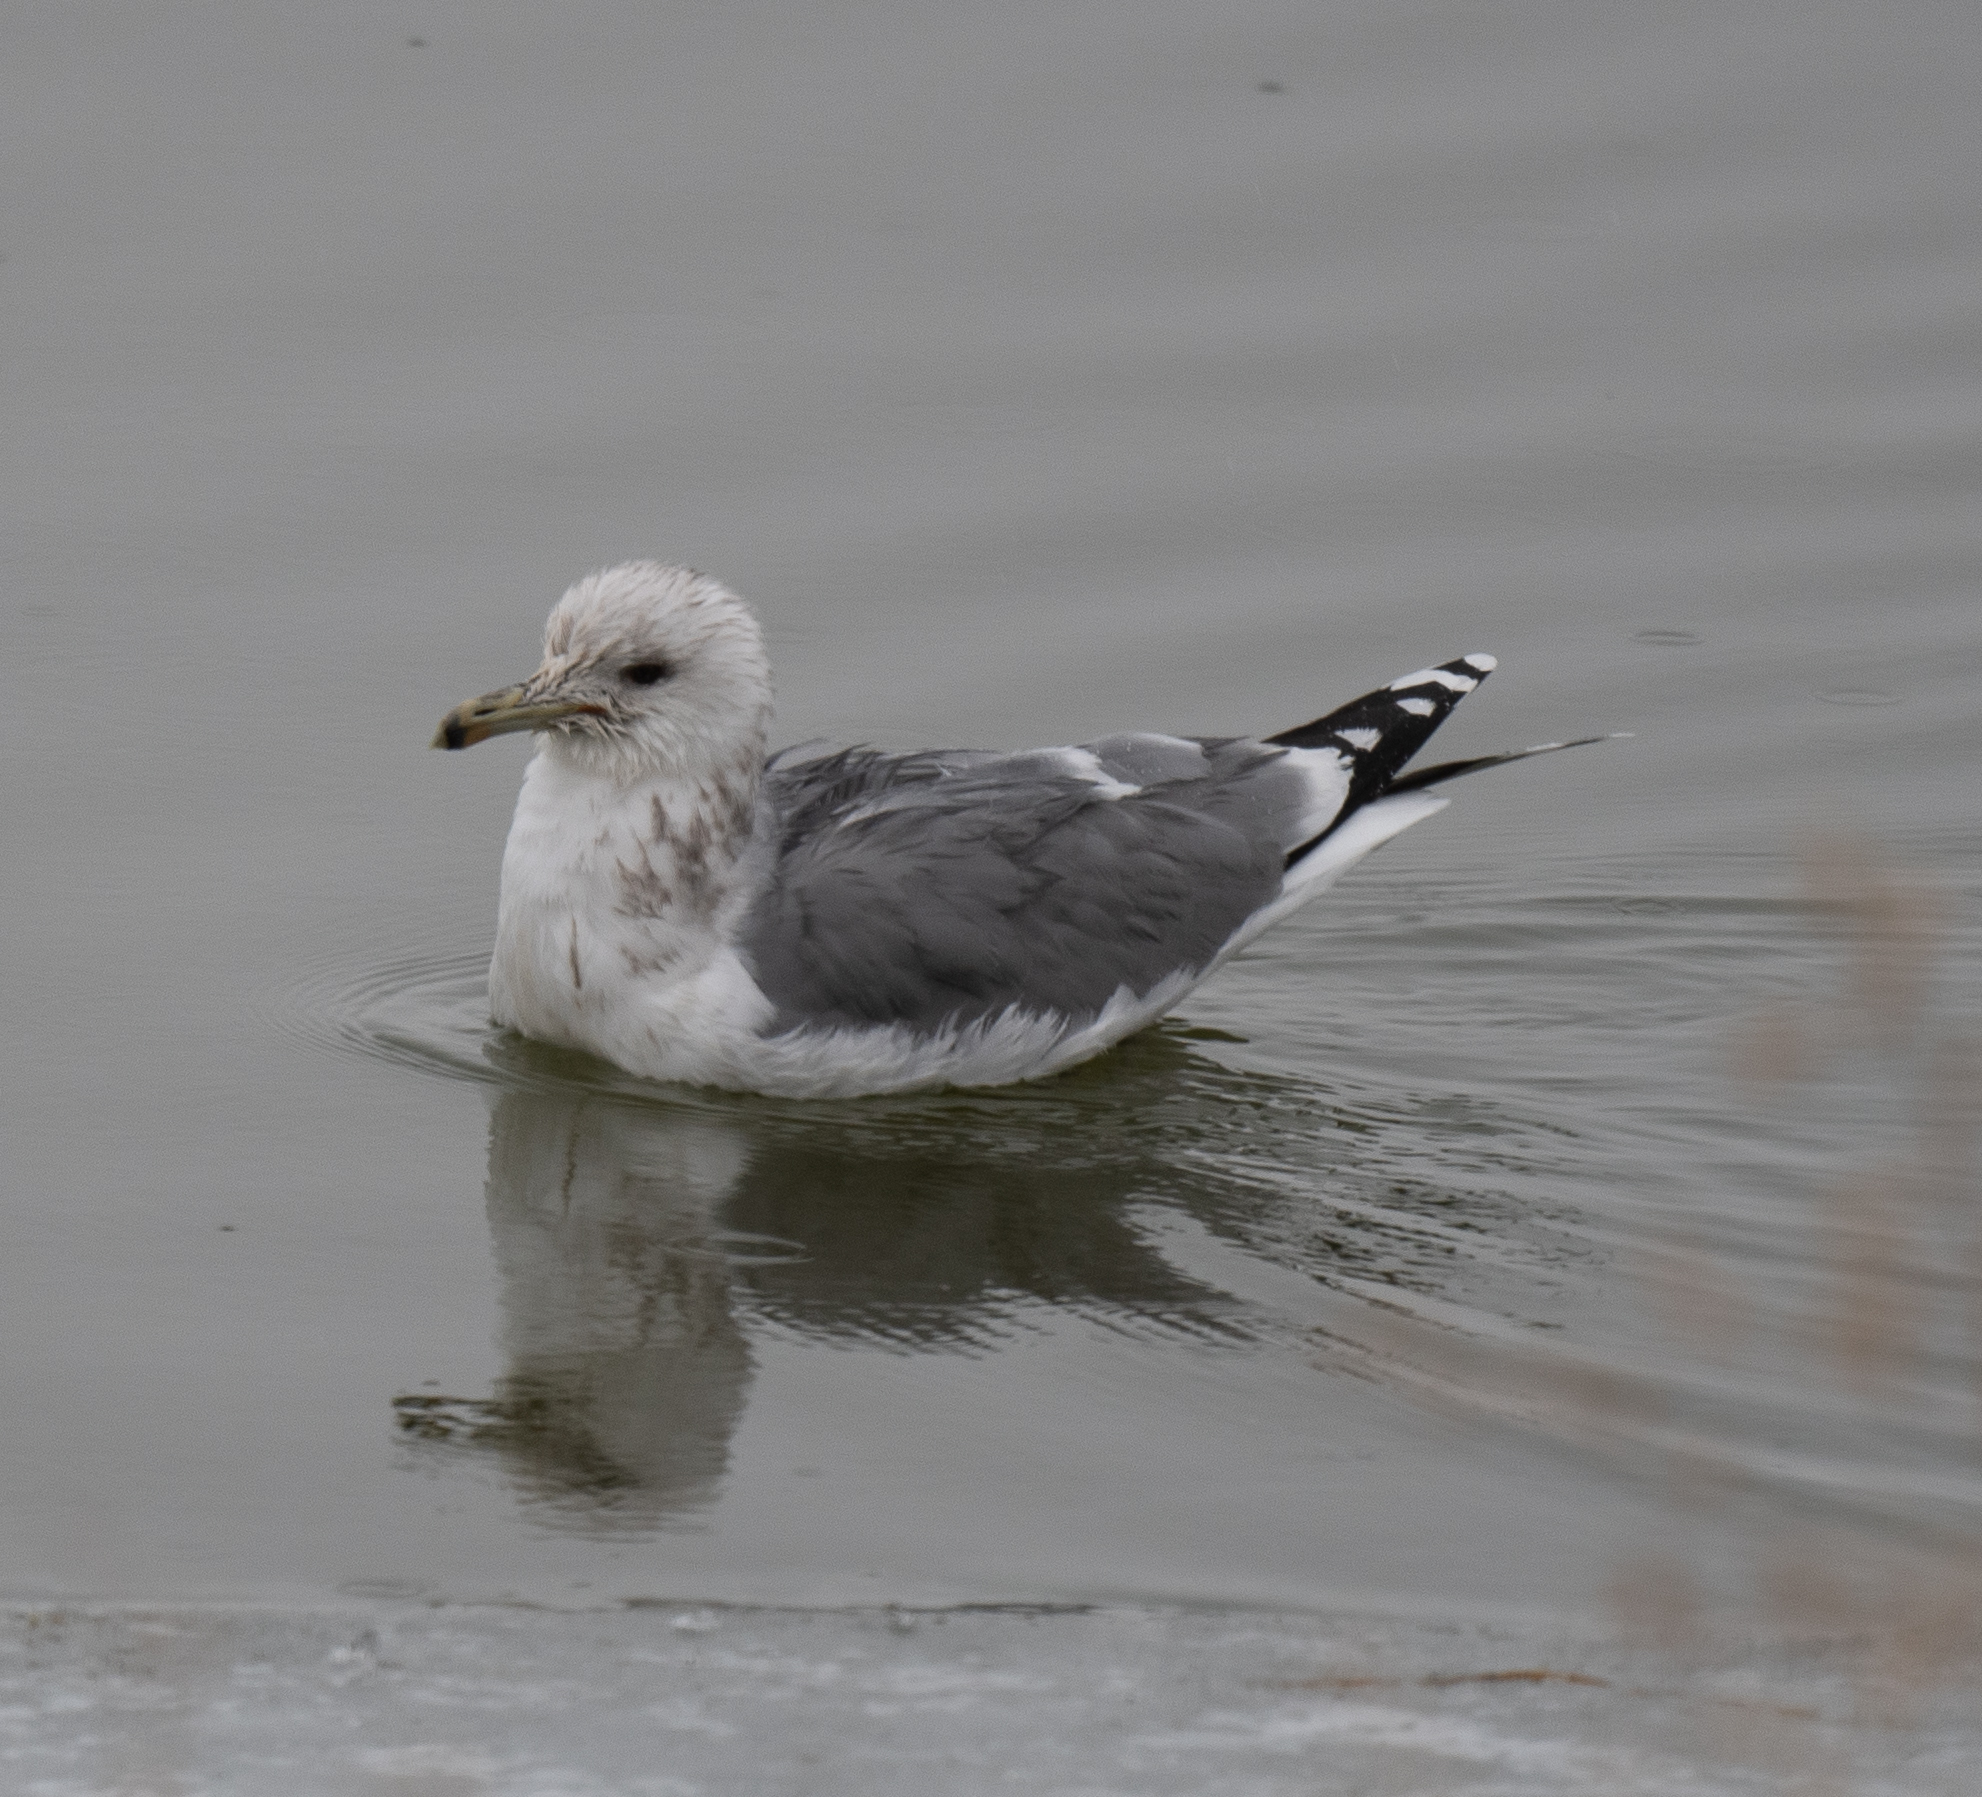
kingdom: Animalia
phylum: Chordata
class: Aves
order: Charadriiformes
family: Laridae
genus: Larus
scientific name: Larus californicus
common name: California gull
